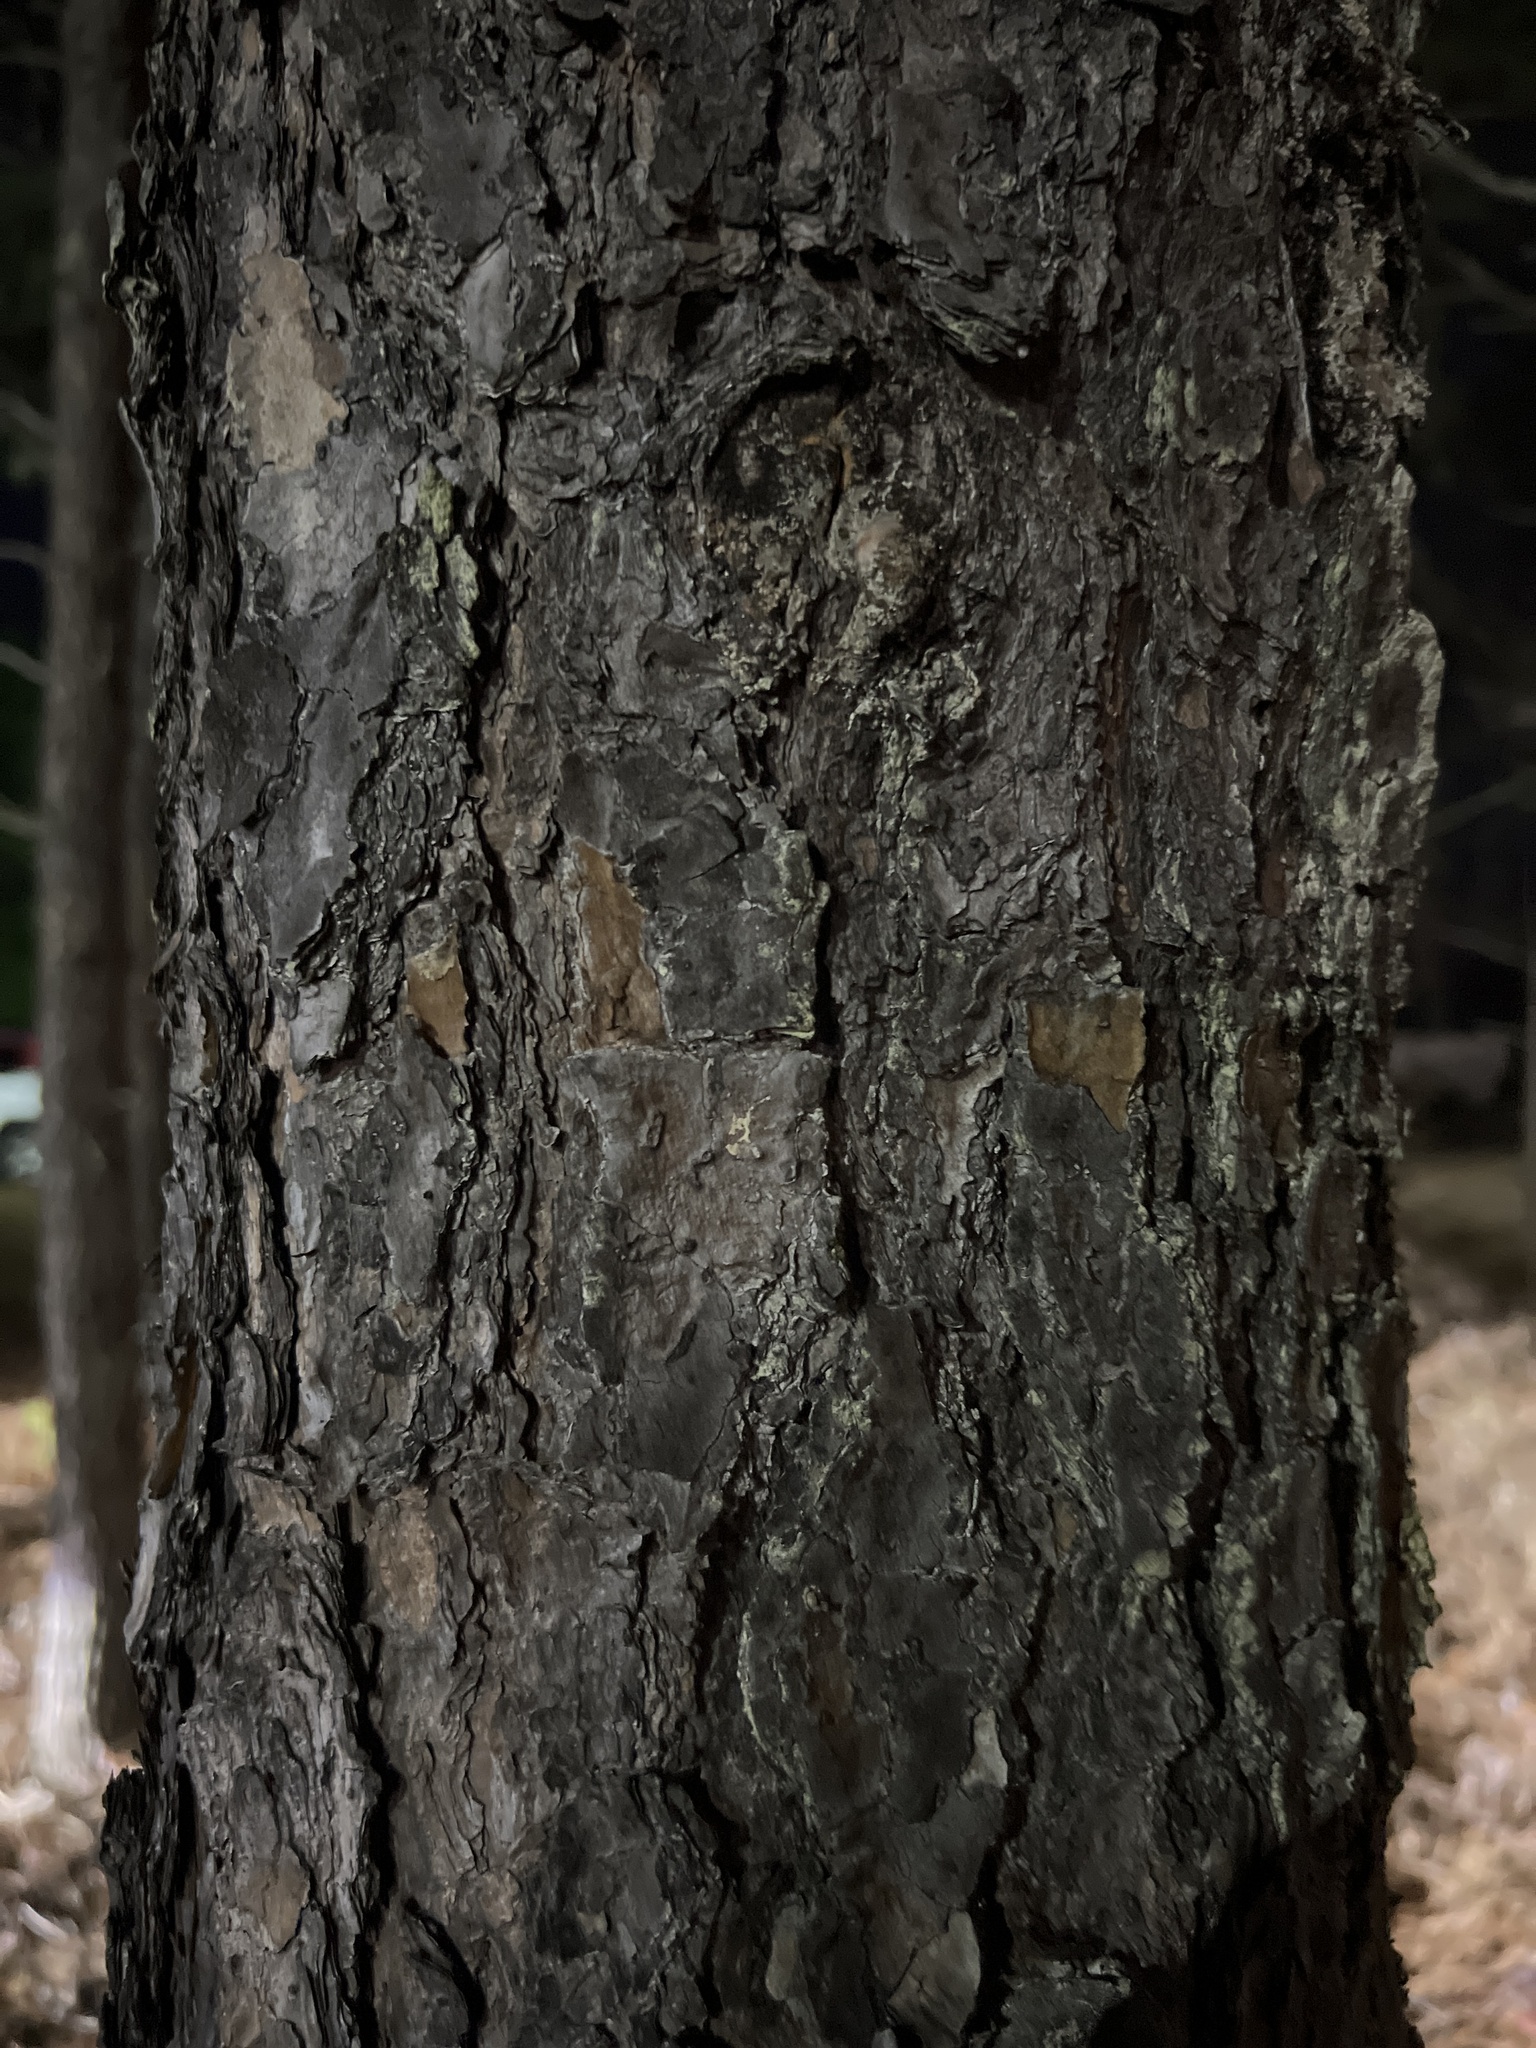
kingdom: Plantae
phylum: Tracheophyta
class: Pinopsida
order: Pinales
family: Pinaceae
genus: Pinus
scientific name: Pinus virginiana
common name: Scrub pine
